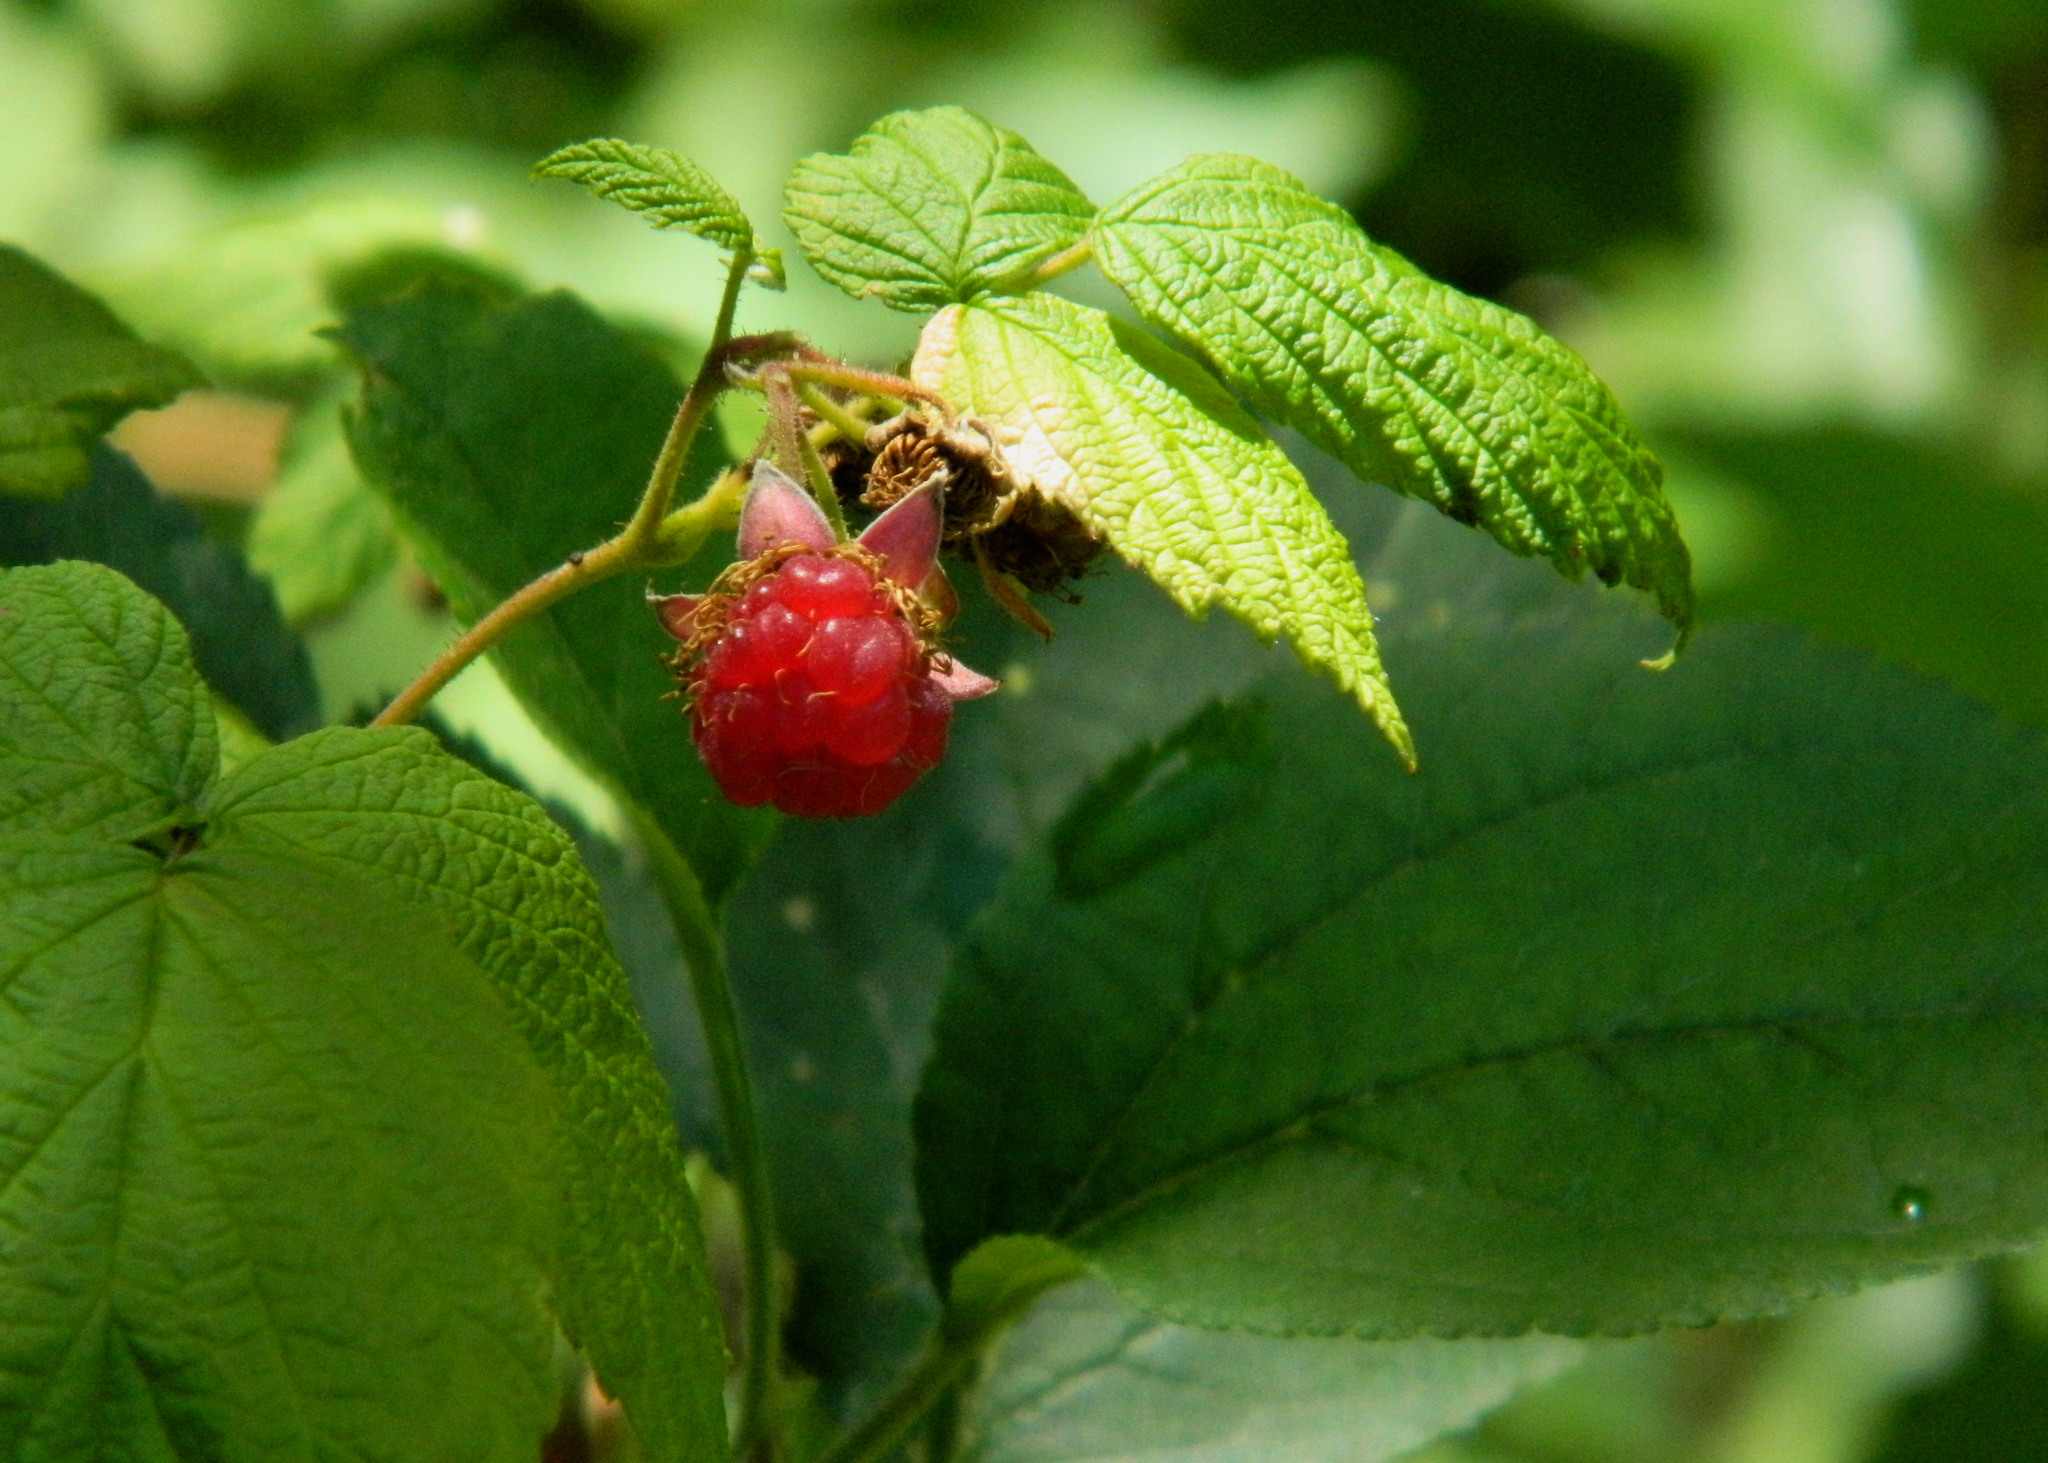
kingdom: Plantae
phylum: Tracheophyta
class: Magnoliopsida
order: Rosales
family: Rosaceae
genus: Rubus
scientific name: Rubus idaeus
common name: Raspberry
